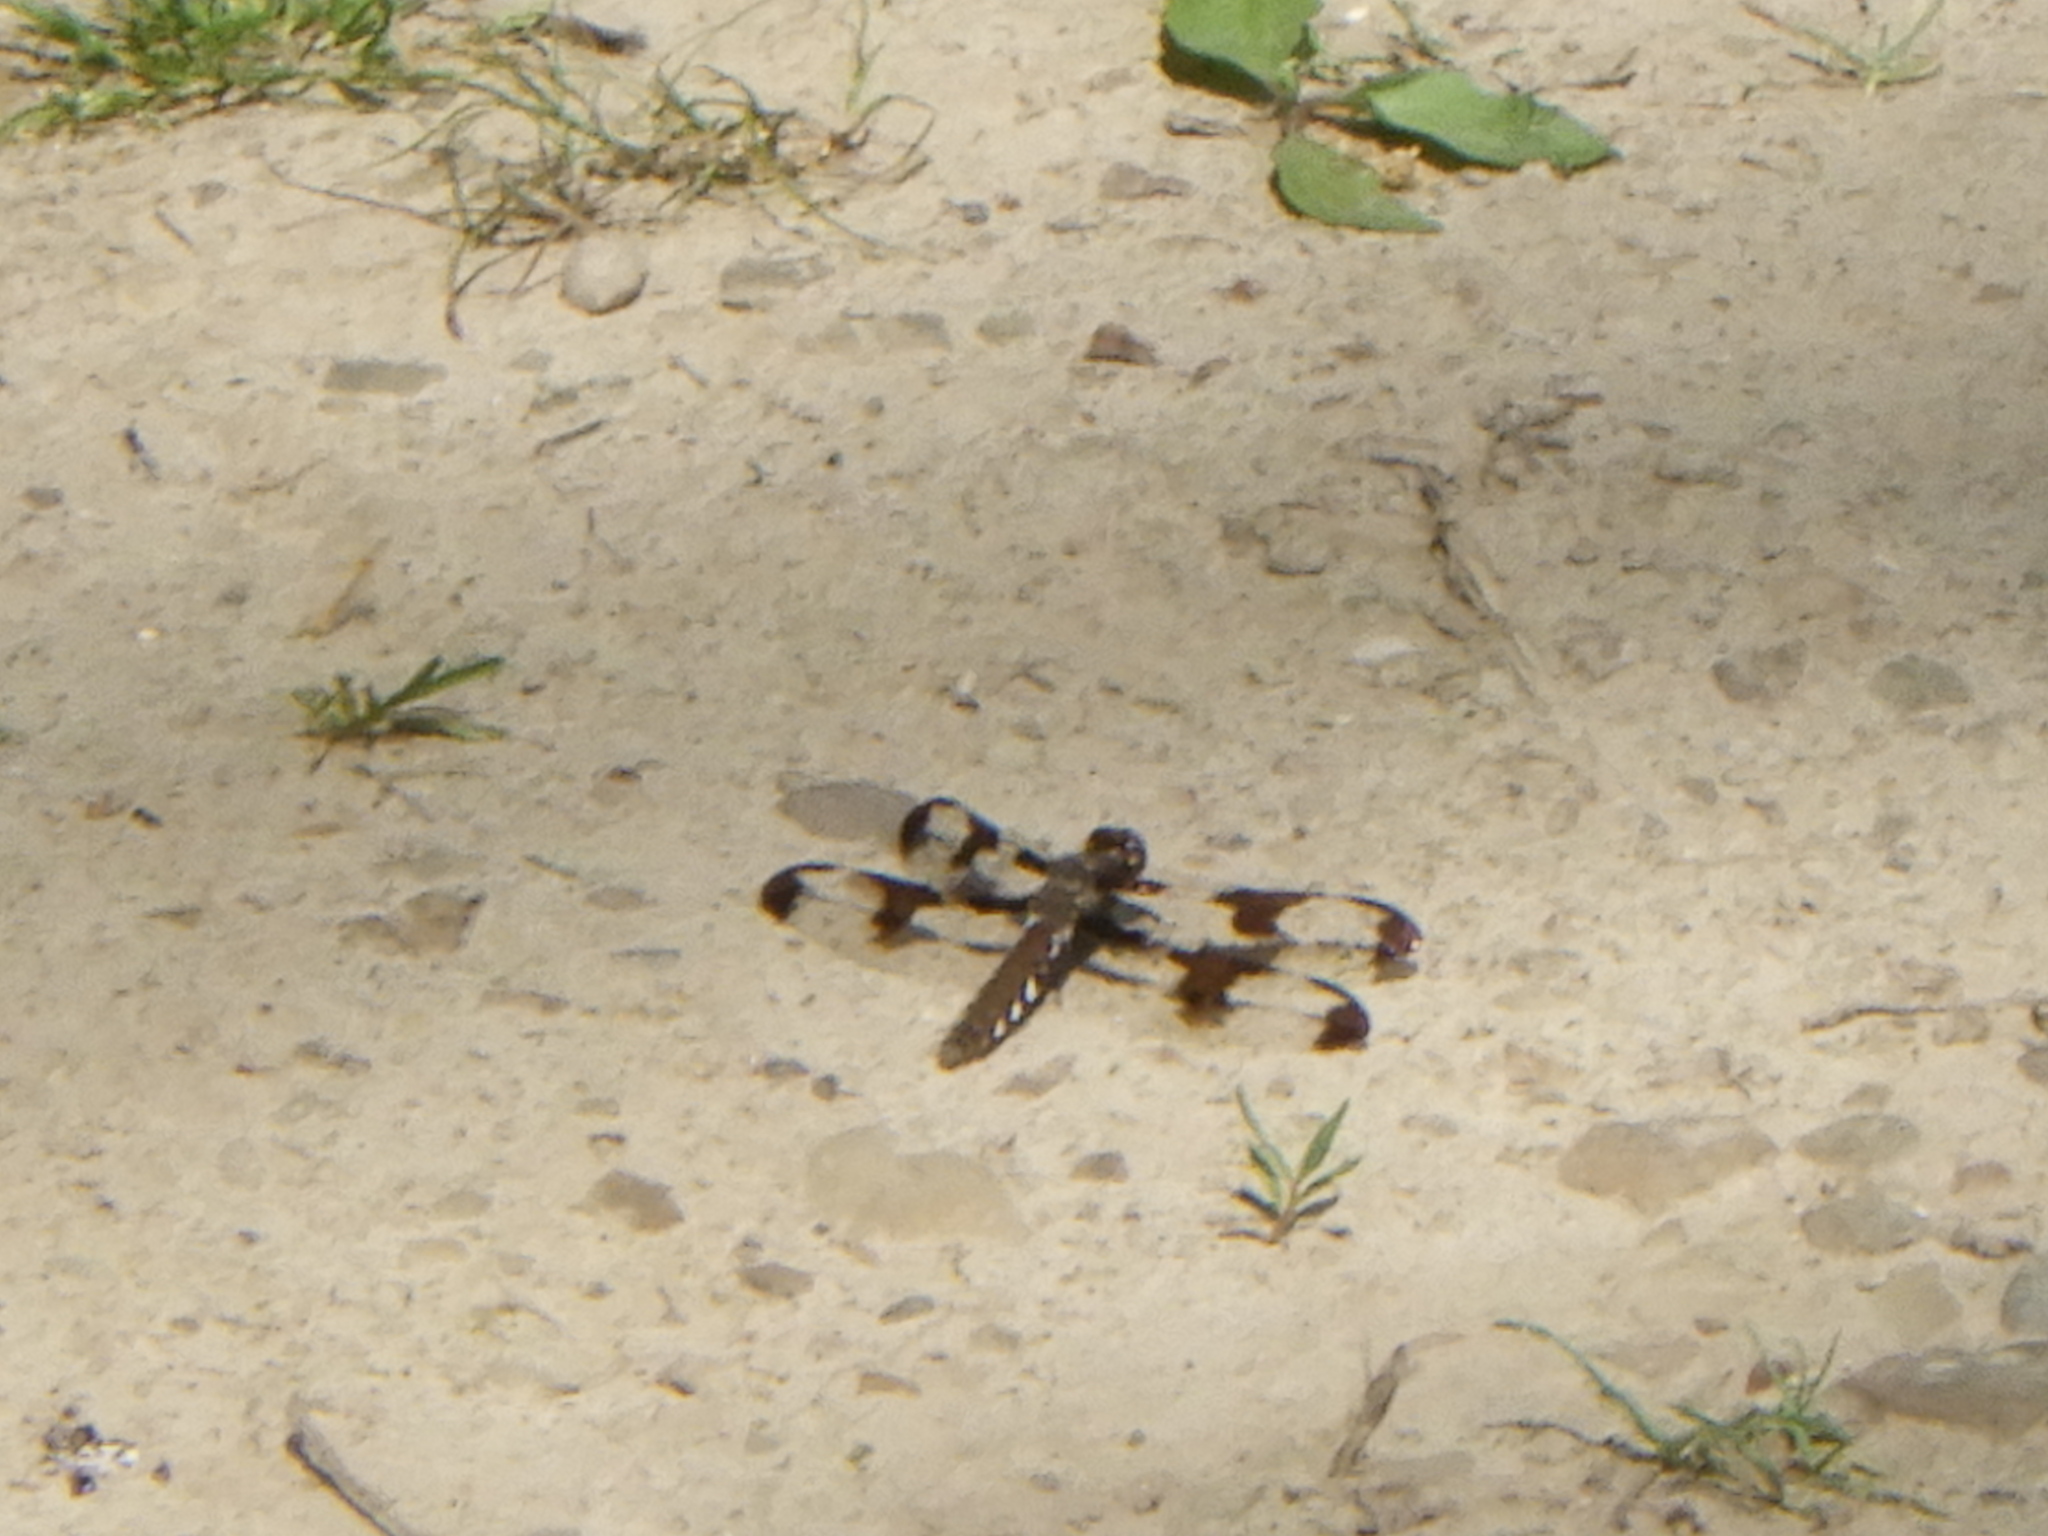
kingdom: Animalia
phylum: Arthropoda
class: Insecta
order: Odonata
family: Libellulidae
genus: Plathemis
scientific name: Plathemis lydia
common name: Common whitetail
